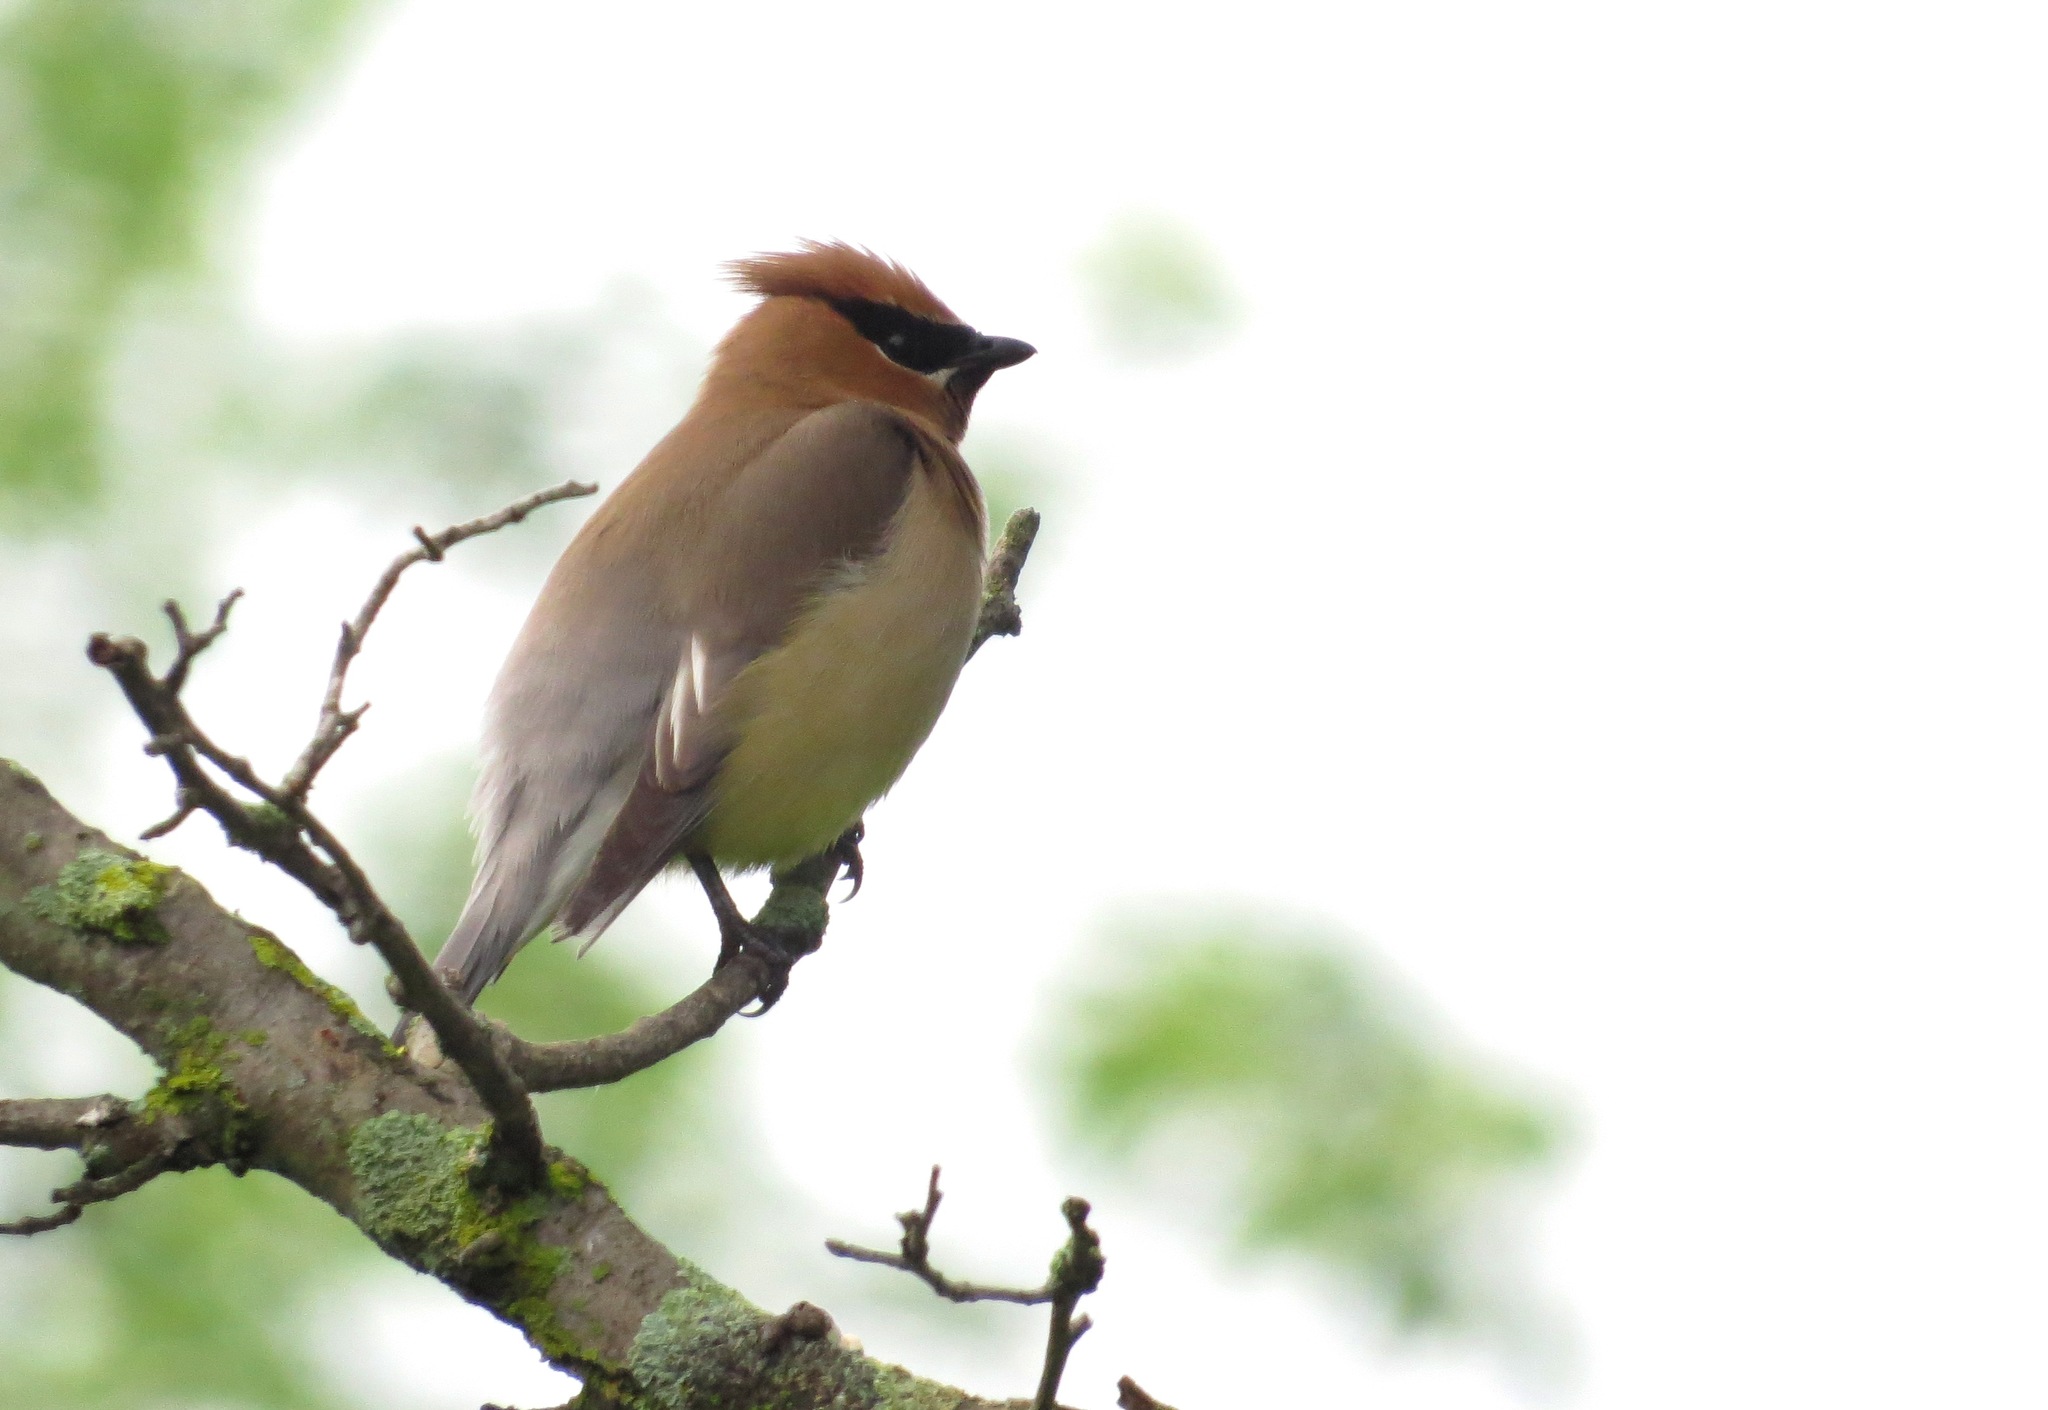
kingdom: Animalia
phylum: Chordata
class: Aves
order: Passeriformes
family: Bombycillidae
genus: Bombycilla
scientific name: Bombycilla cedrorum
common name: Cedar waxwing
